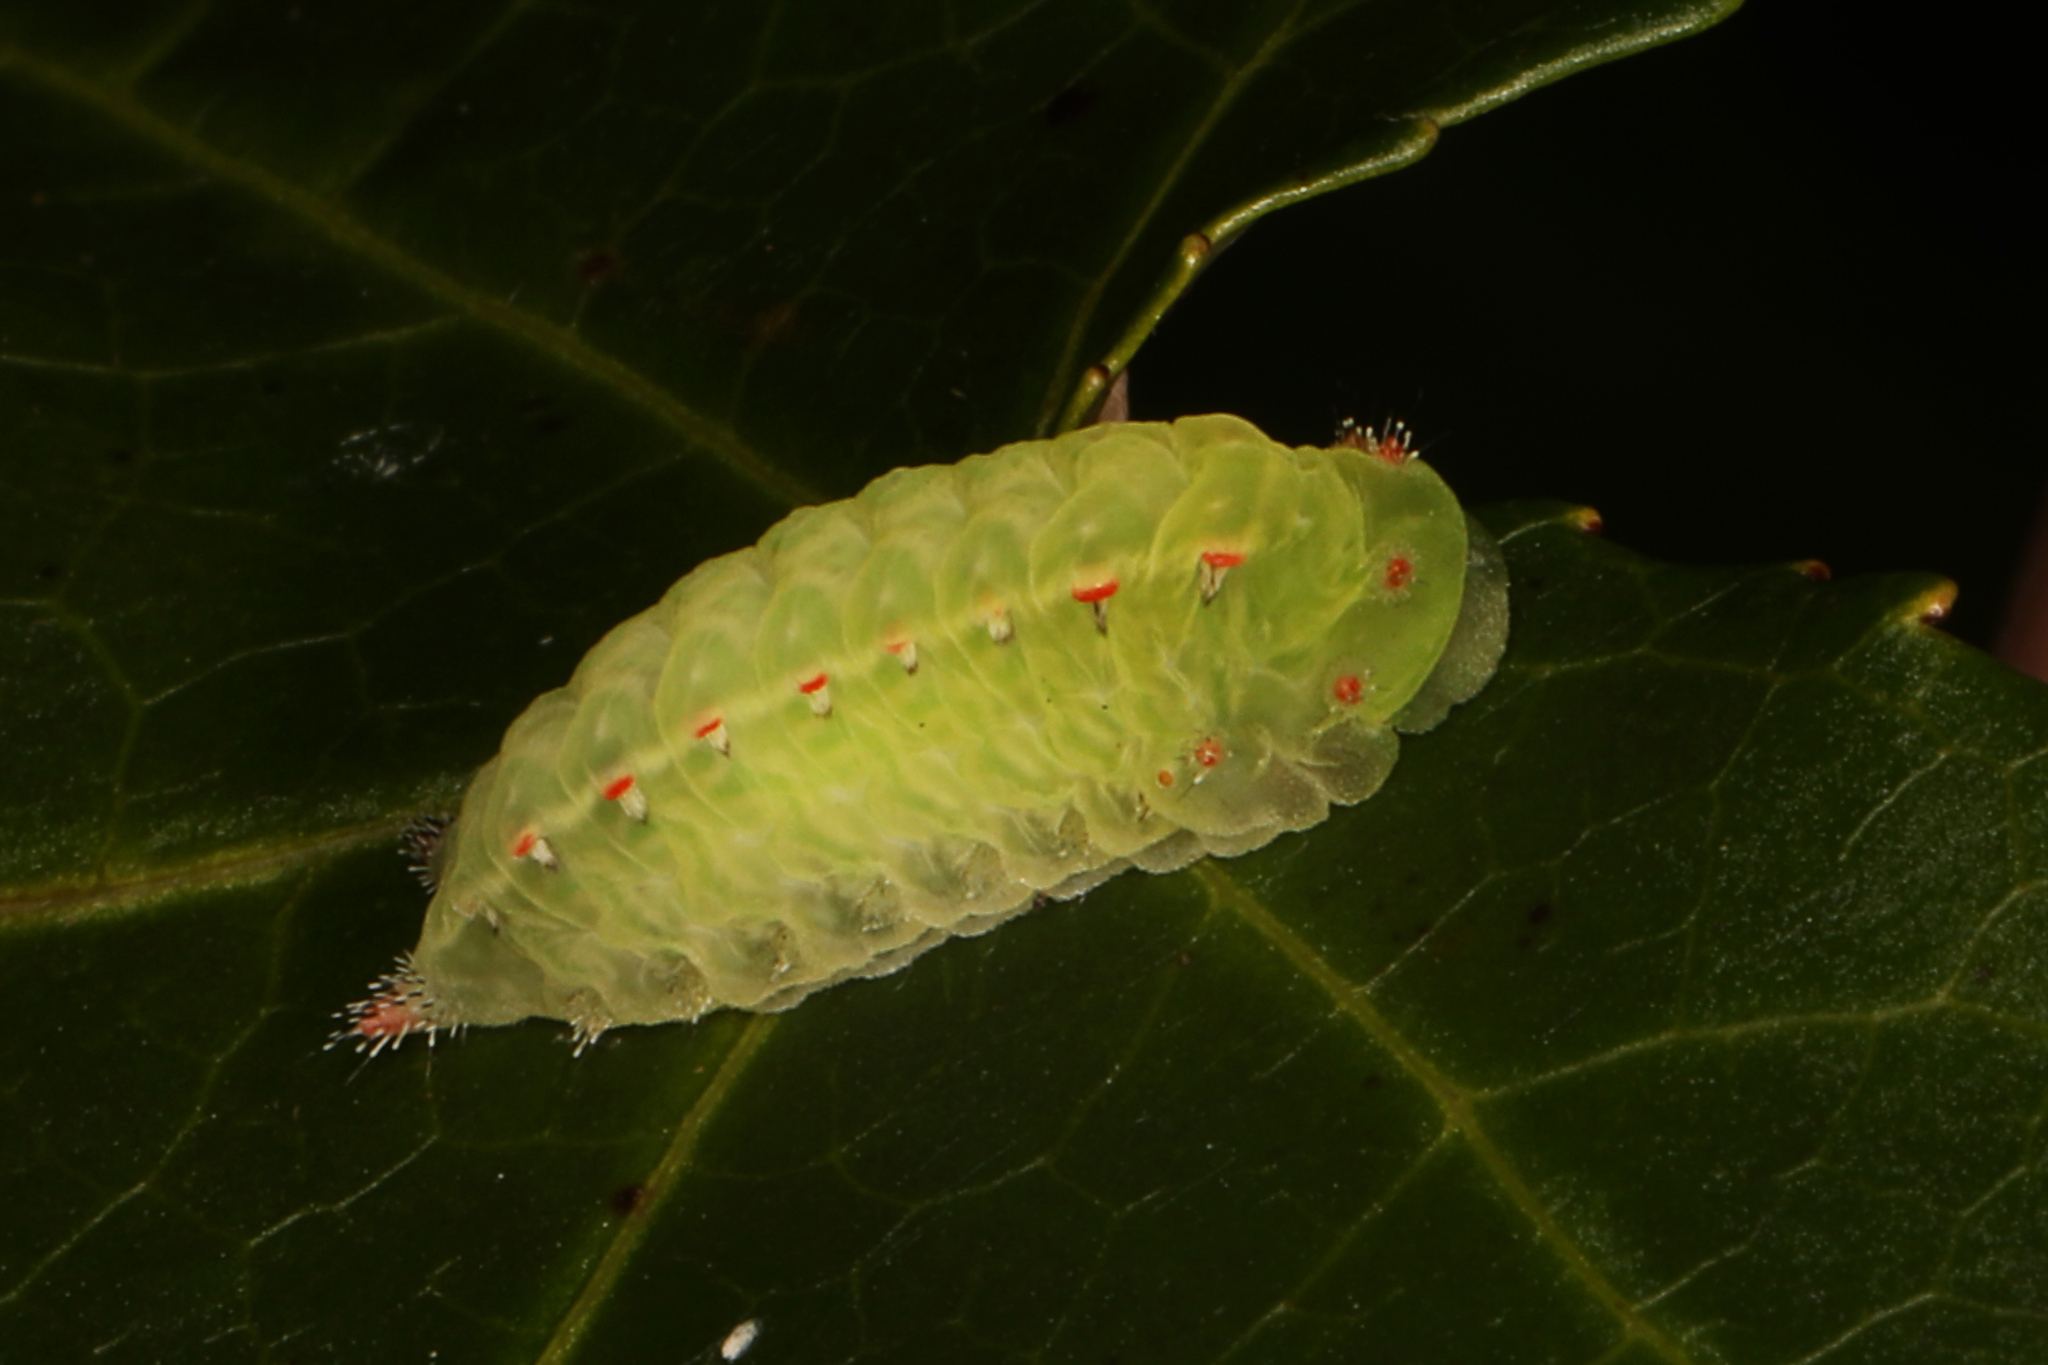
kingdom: Animalia
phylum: Arthropoda
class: Insecta
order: Lepidoptera
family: Limacodidae
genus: Natada
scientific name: Natada nasoni
